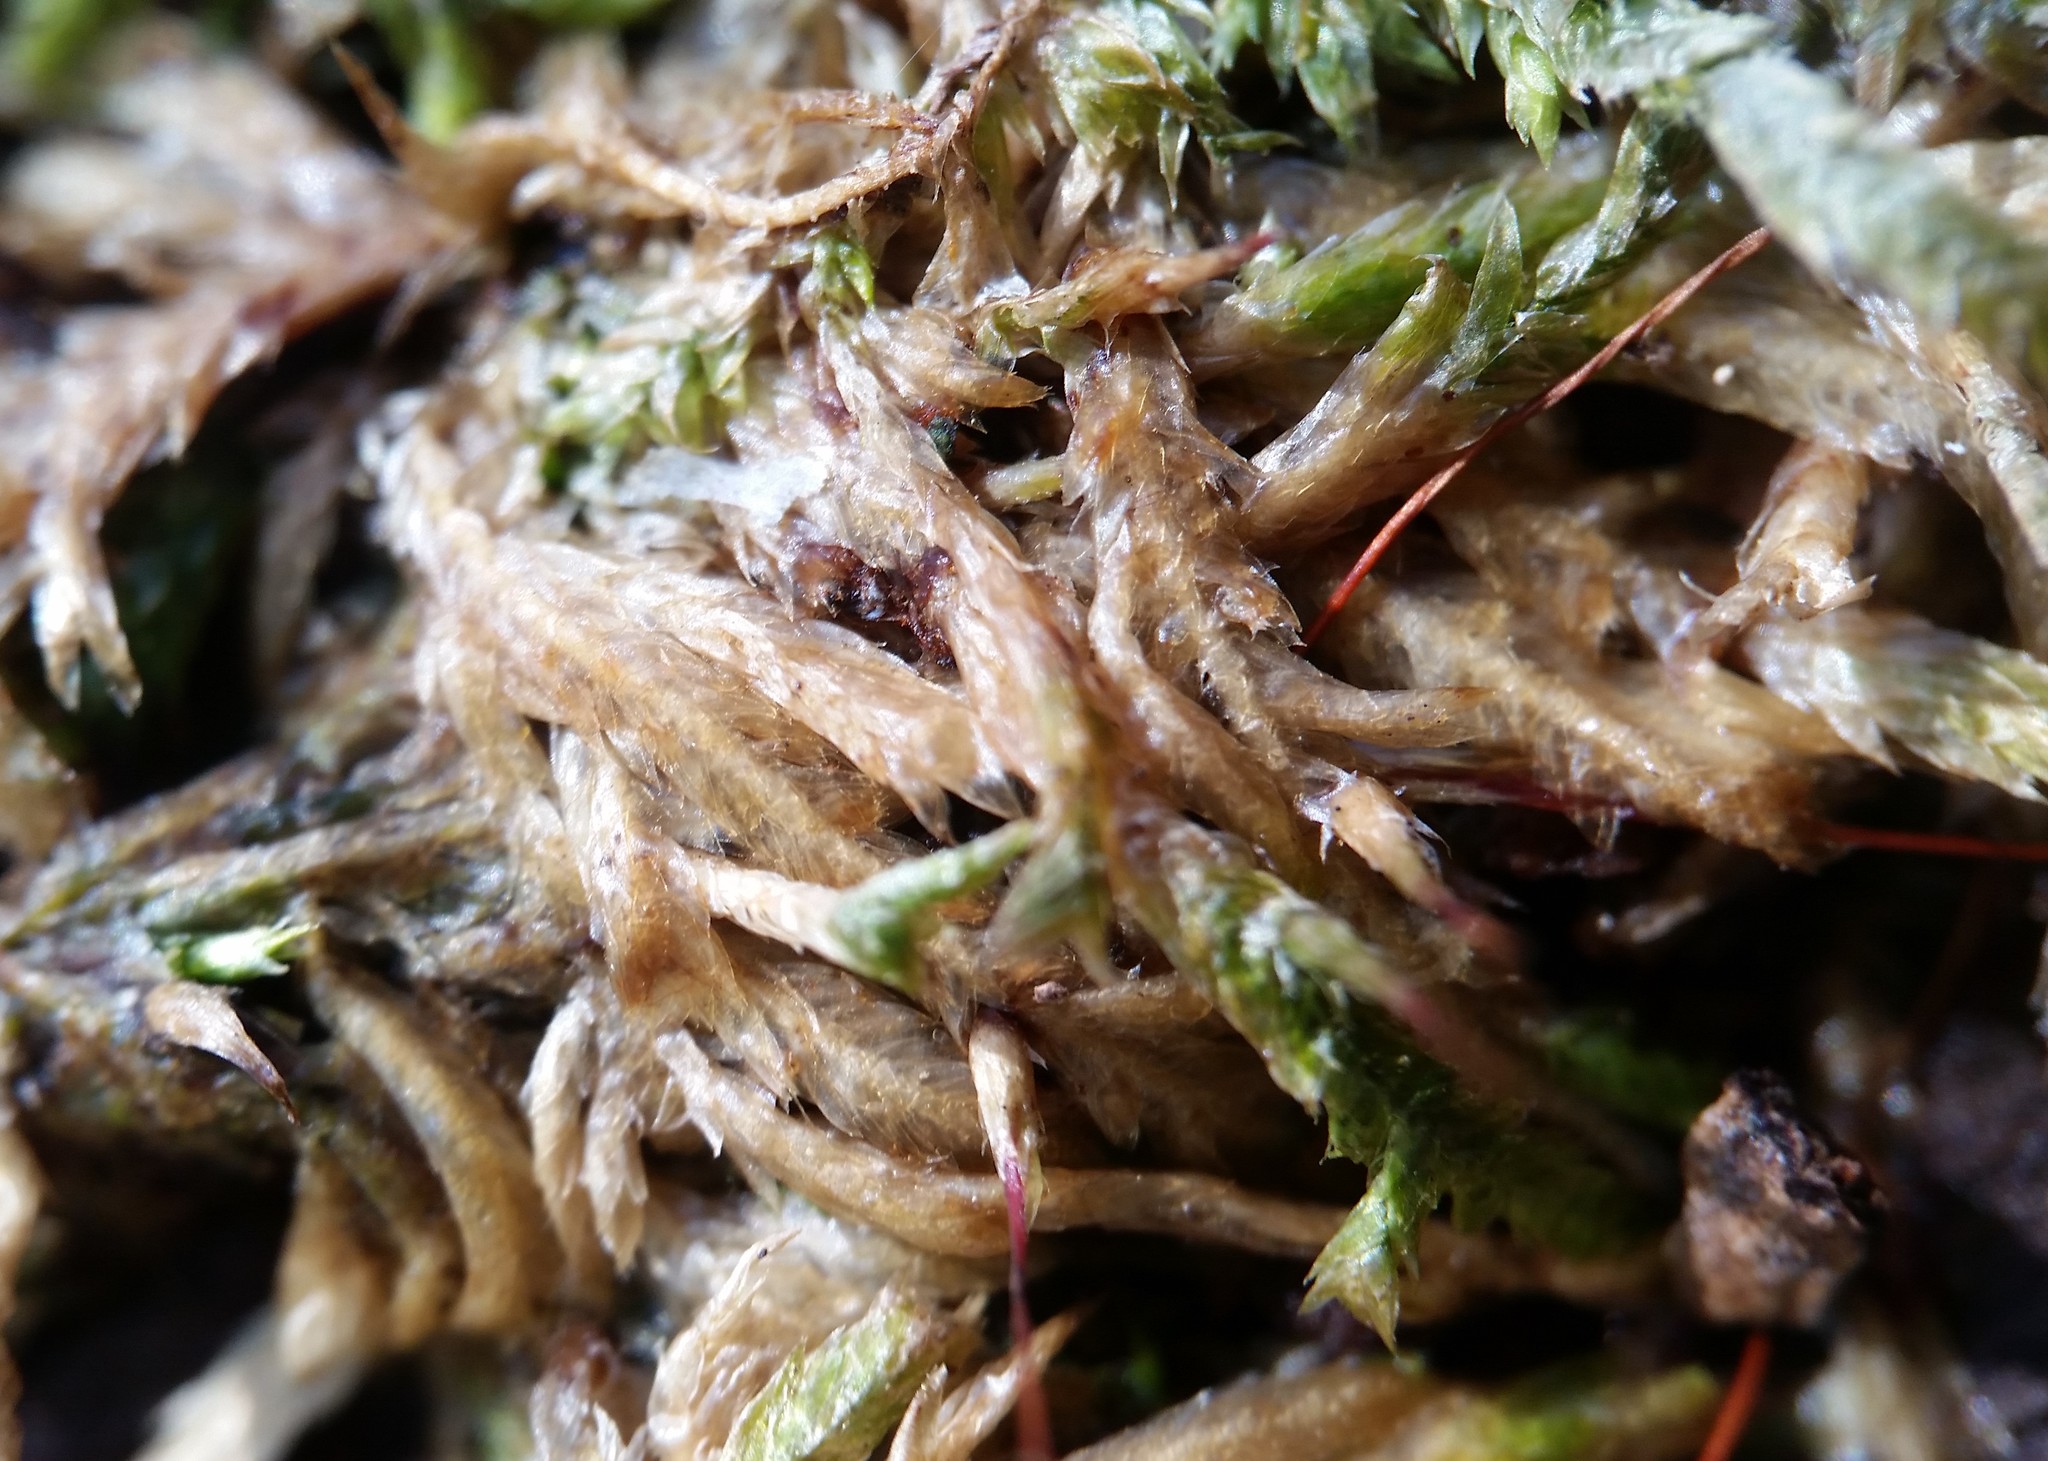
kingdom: Plantae
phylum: Bryophyta
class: Bryopsida
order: Hypnales
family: Entodontaceae
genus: Entodon
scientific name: Entodon cladorrhizans
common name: Flat-stemmed entodon moss
